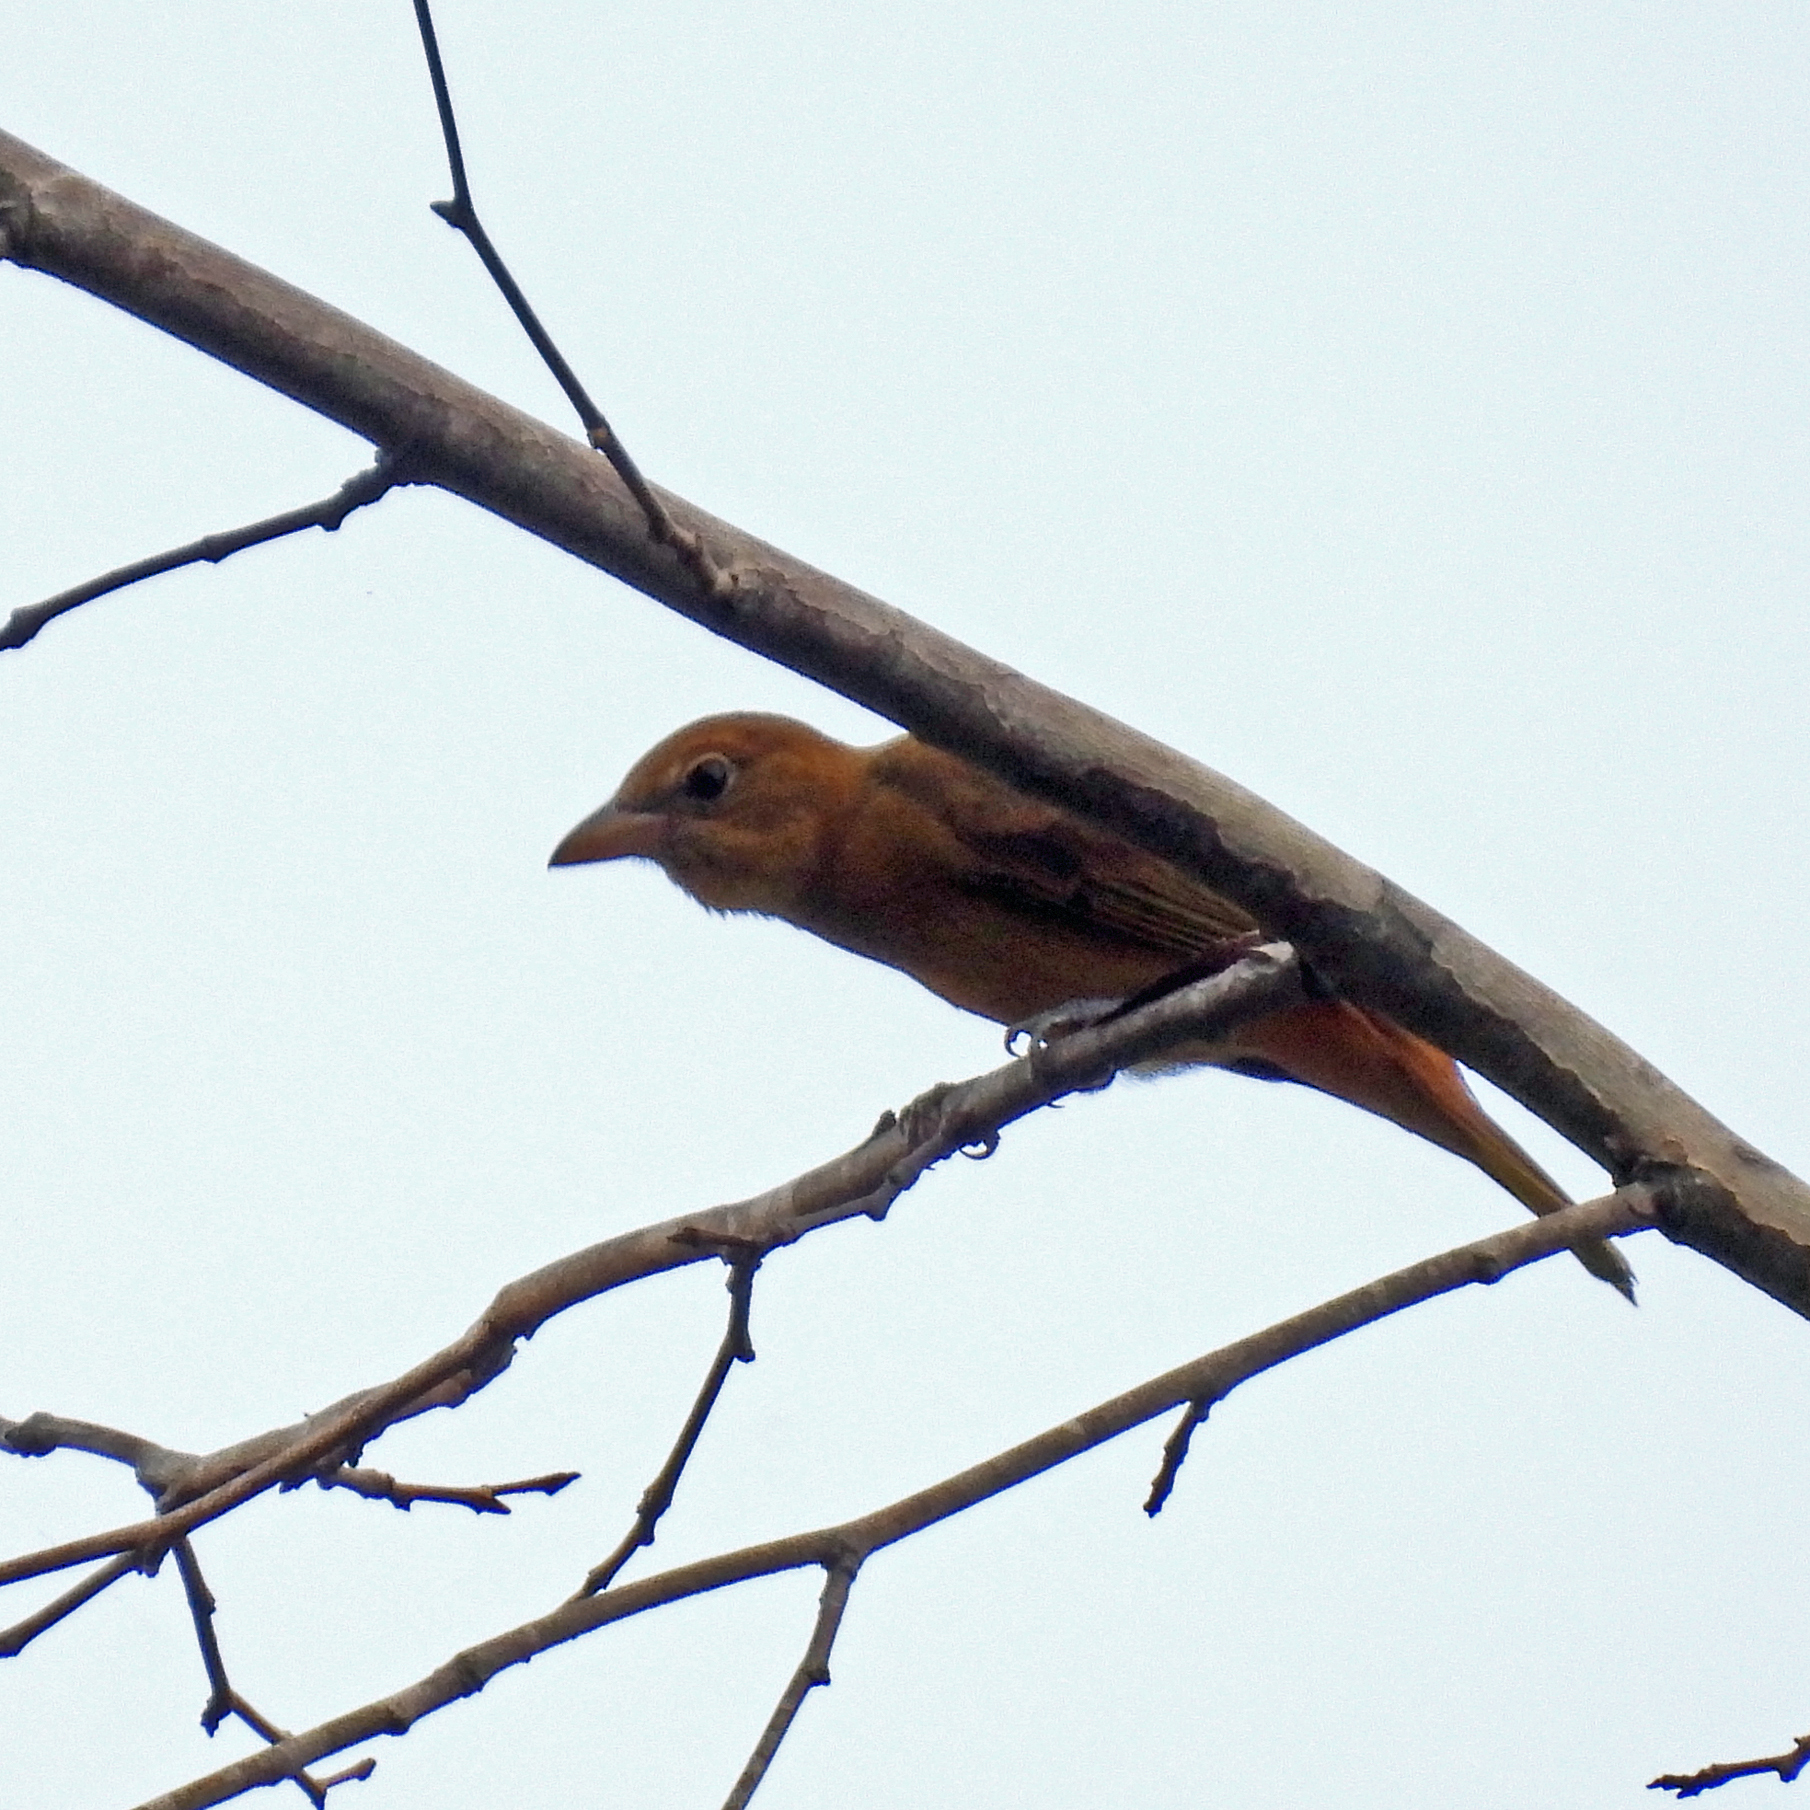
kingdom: Animalia
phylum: Chordata
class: Aves
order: Passeriformes
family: Cardinalidae
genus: Piranga
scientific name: Piranga rubra
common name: Summer tanager
